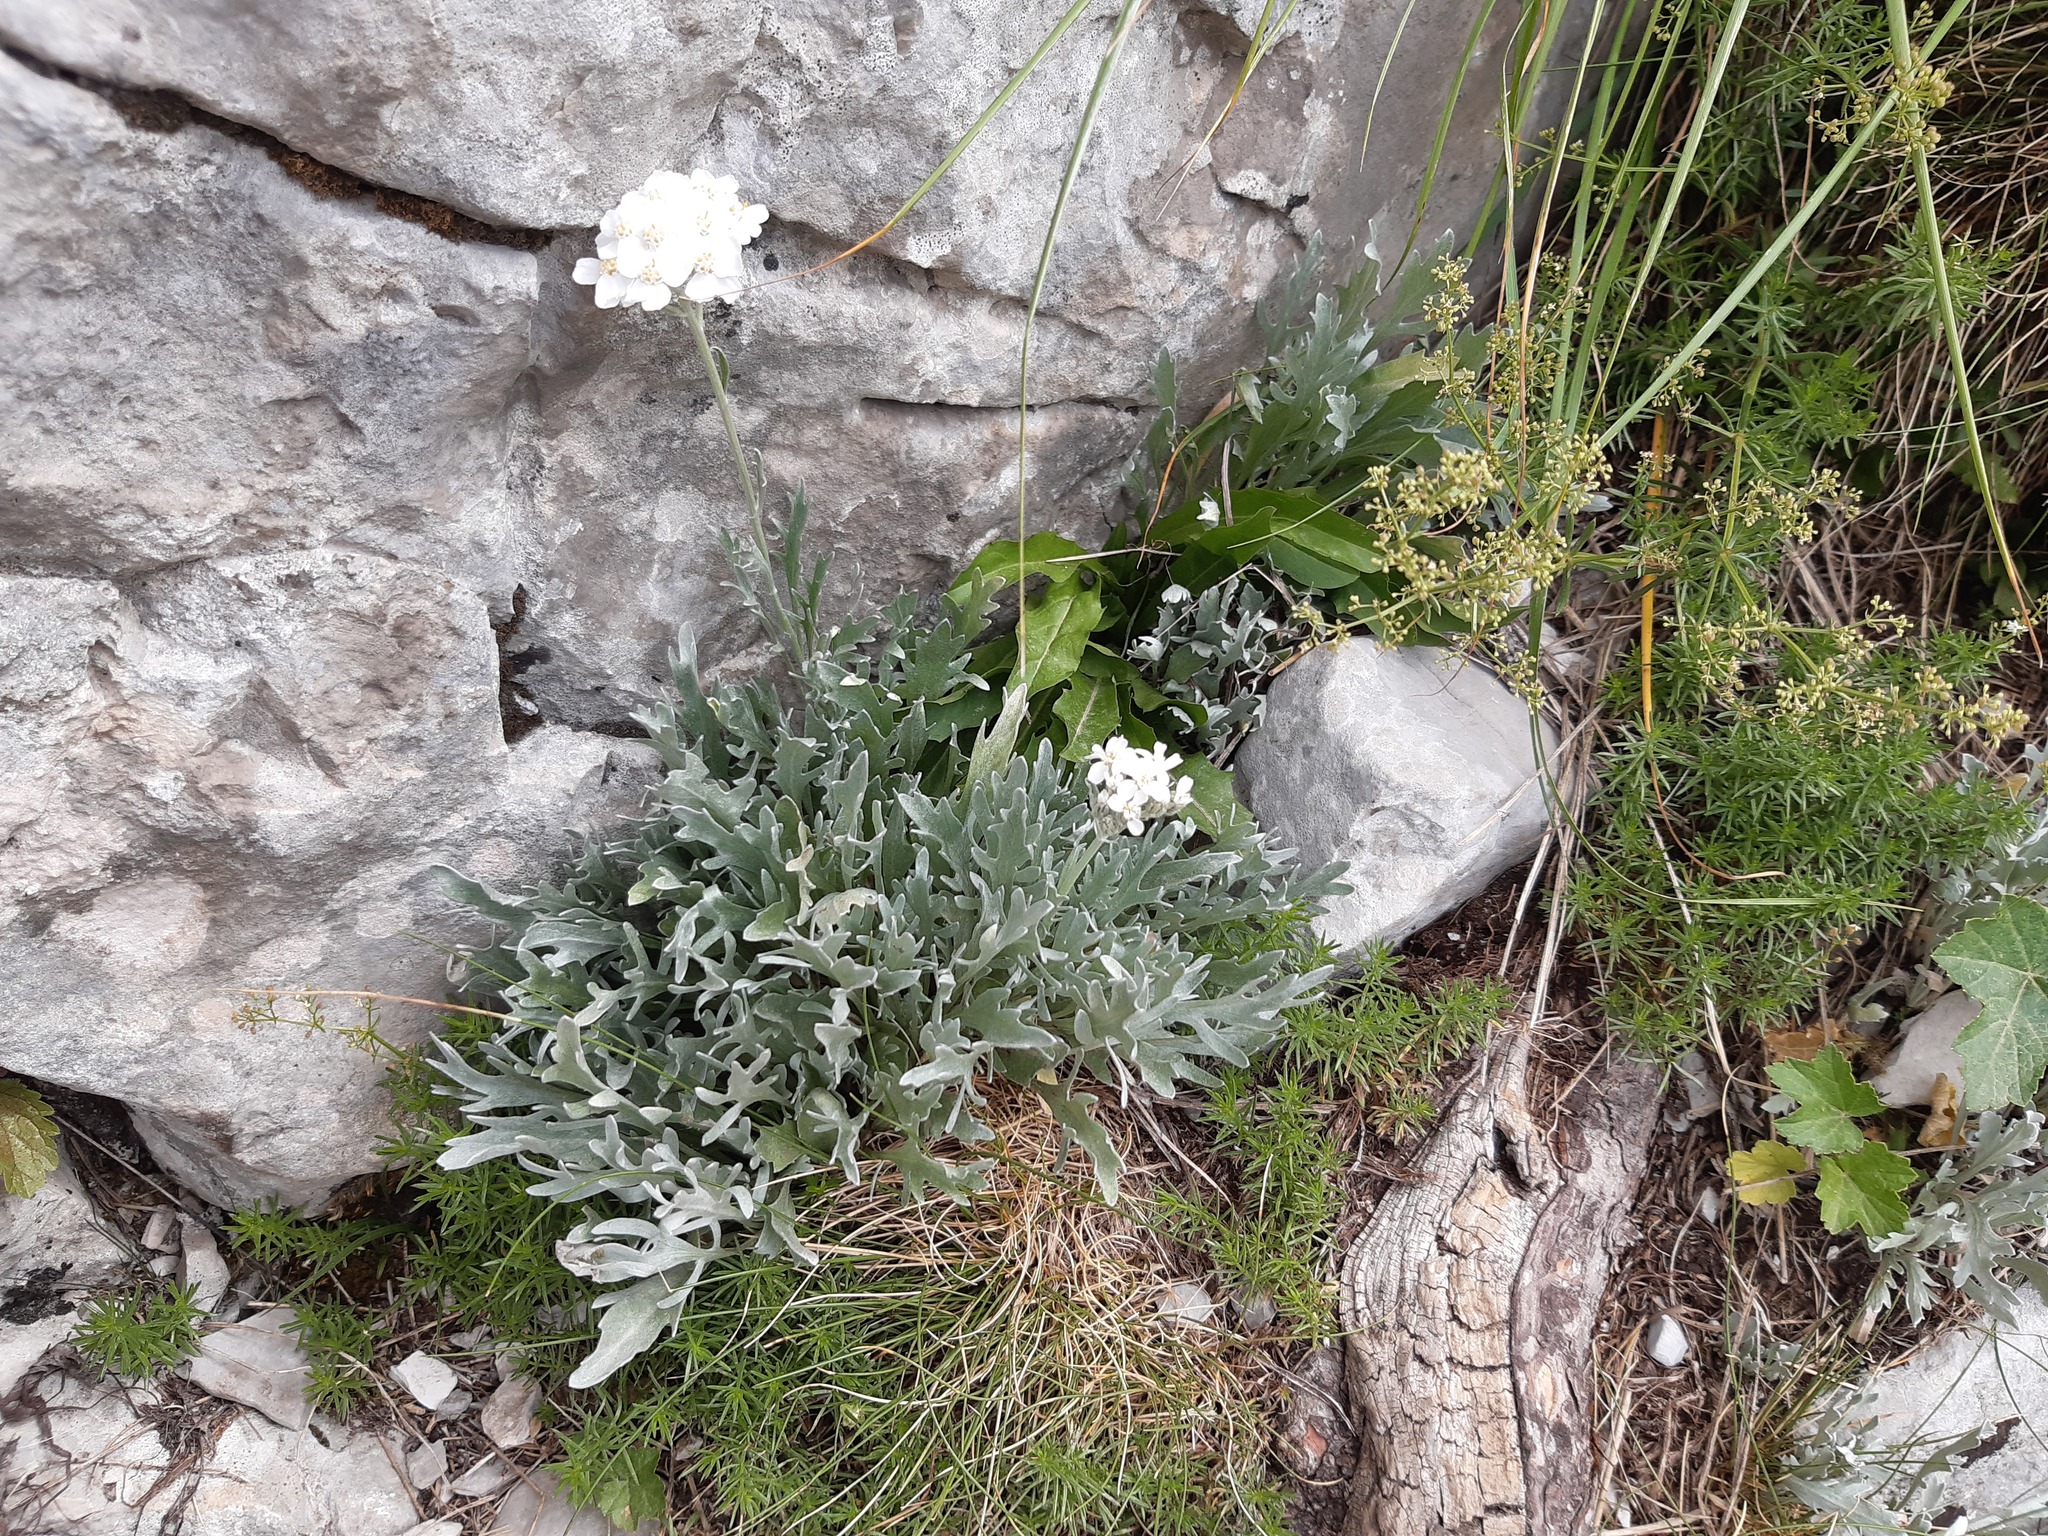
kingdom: Plantae
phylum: Tracheophyta
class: Magnoliopsida
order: Asterales
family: Asteraceae
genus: Achillea
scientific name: Achillea clavennae
